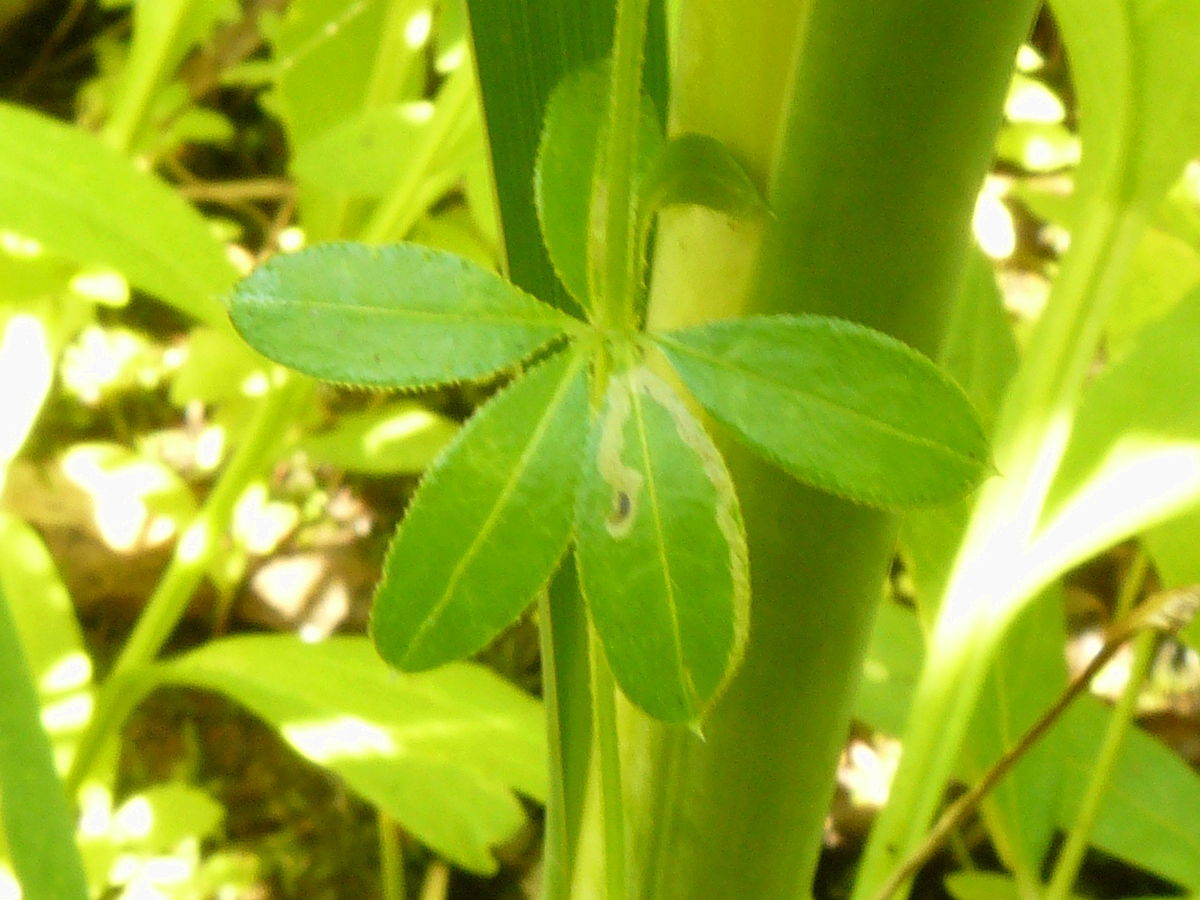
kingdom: Plantae
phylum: Tracheophyta
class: Magnoliopsida
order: Gentianales
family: Rubiaceae
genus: Galium
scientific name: Galium asprellum
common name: Rough bedstraw
